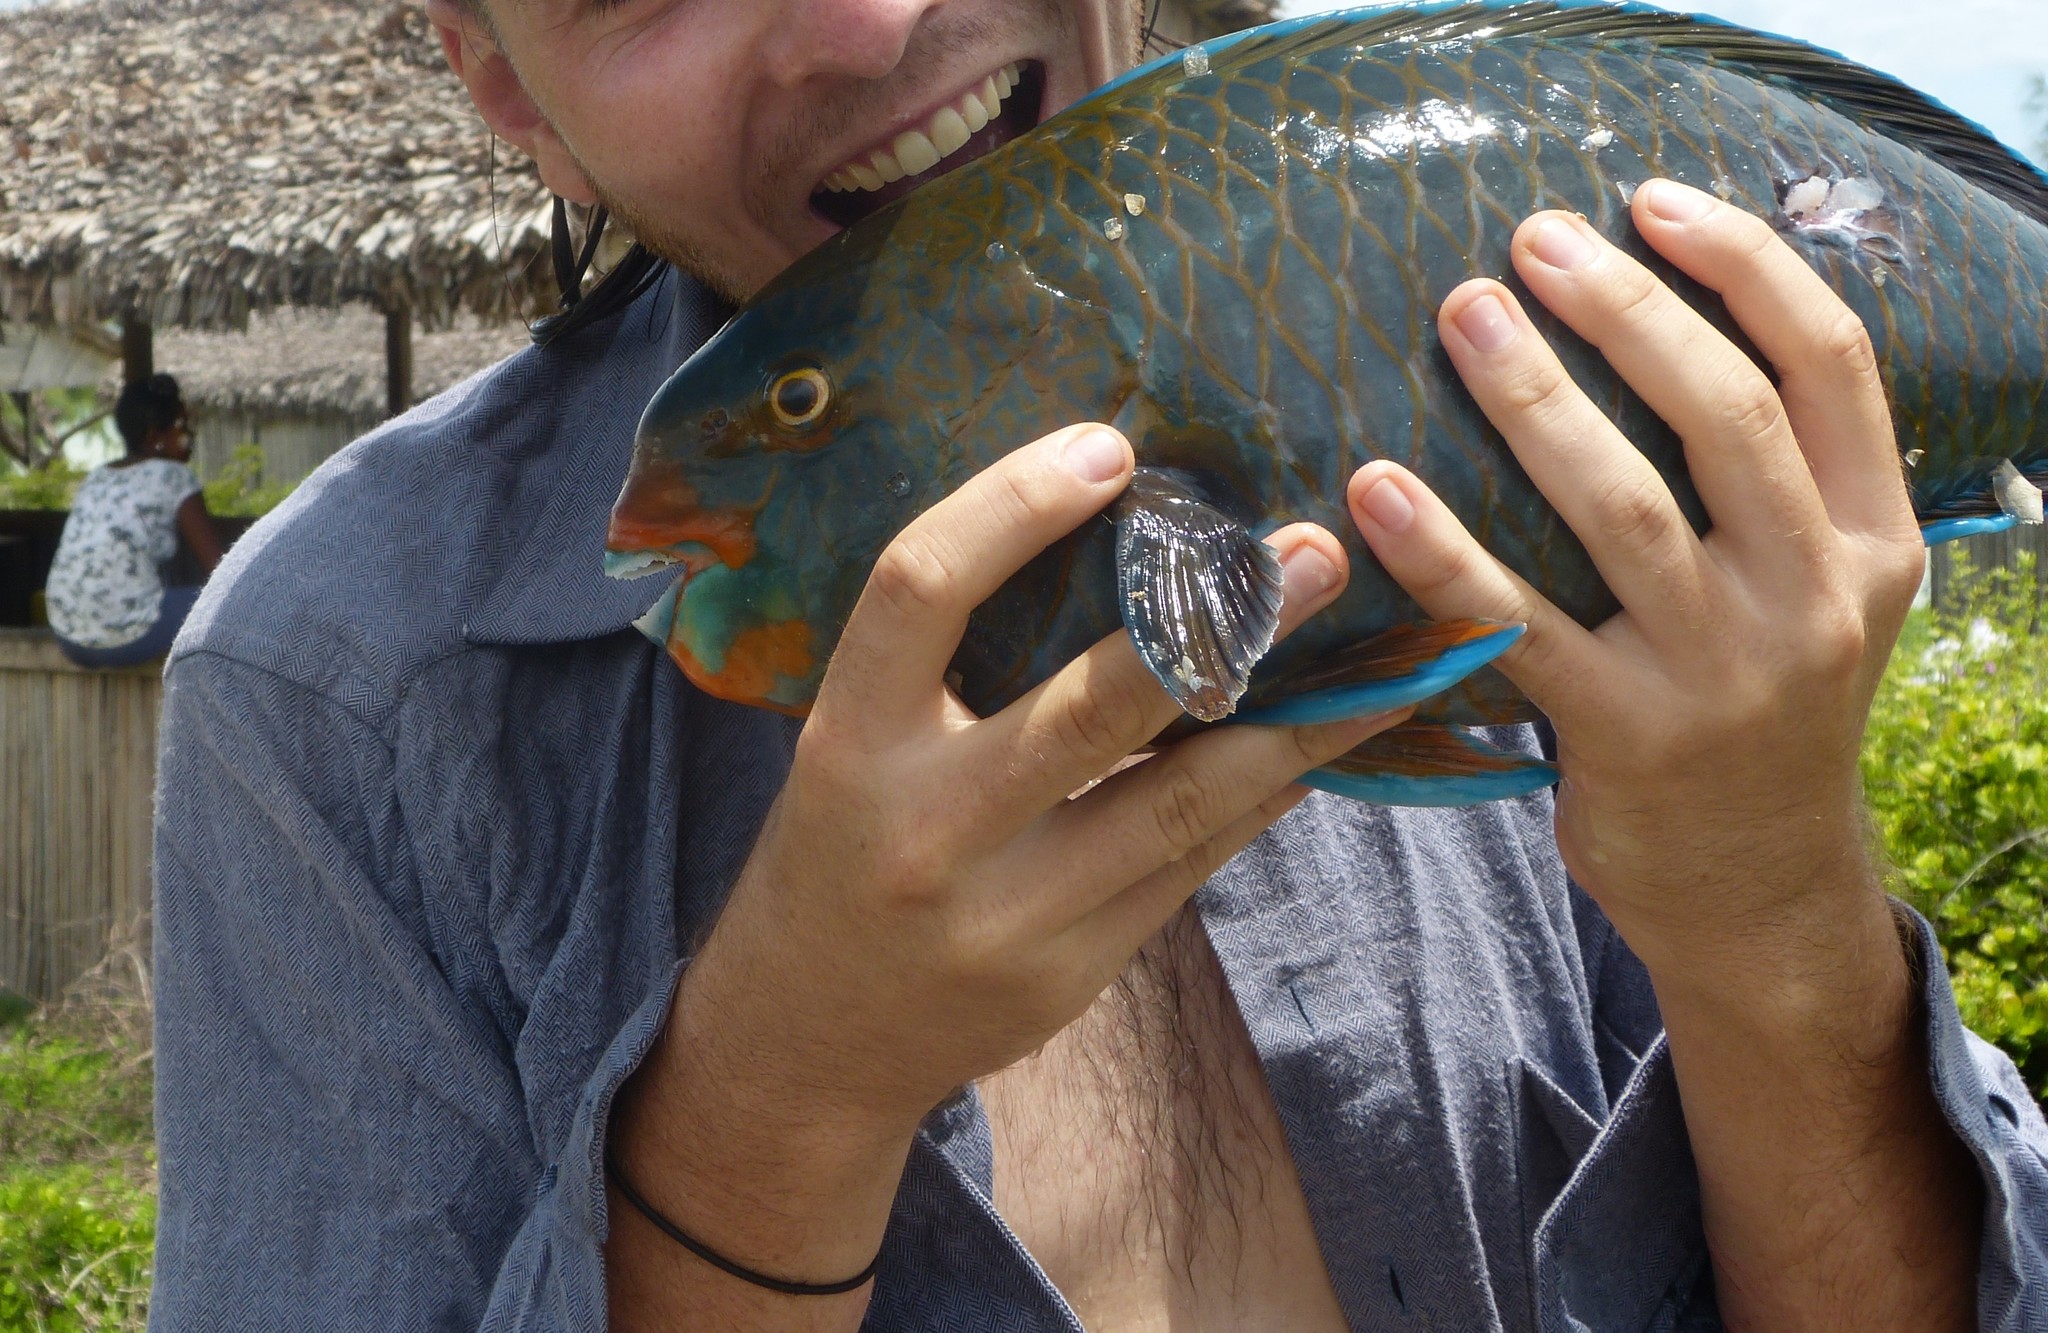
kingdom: Animalia
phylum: Chordata
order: Perciformes
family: Scaridae
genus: Scarus
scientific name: Scarus viridifucatus
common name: Green-snout parrotfish
